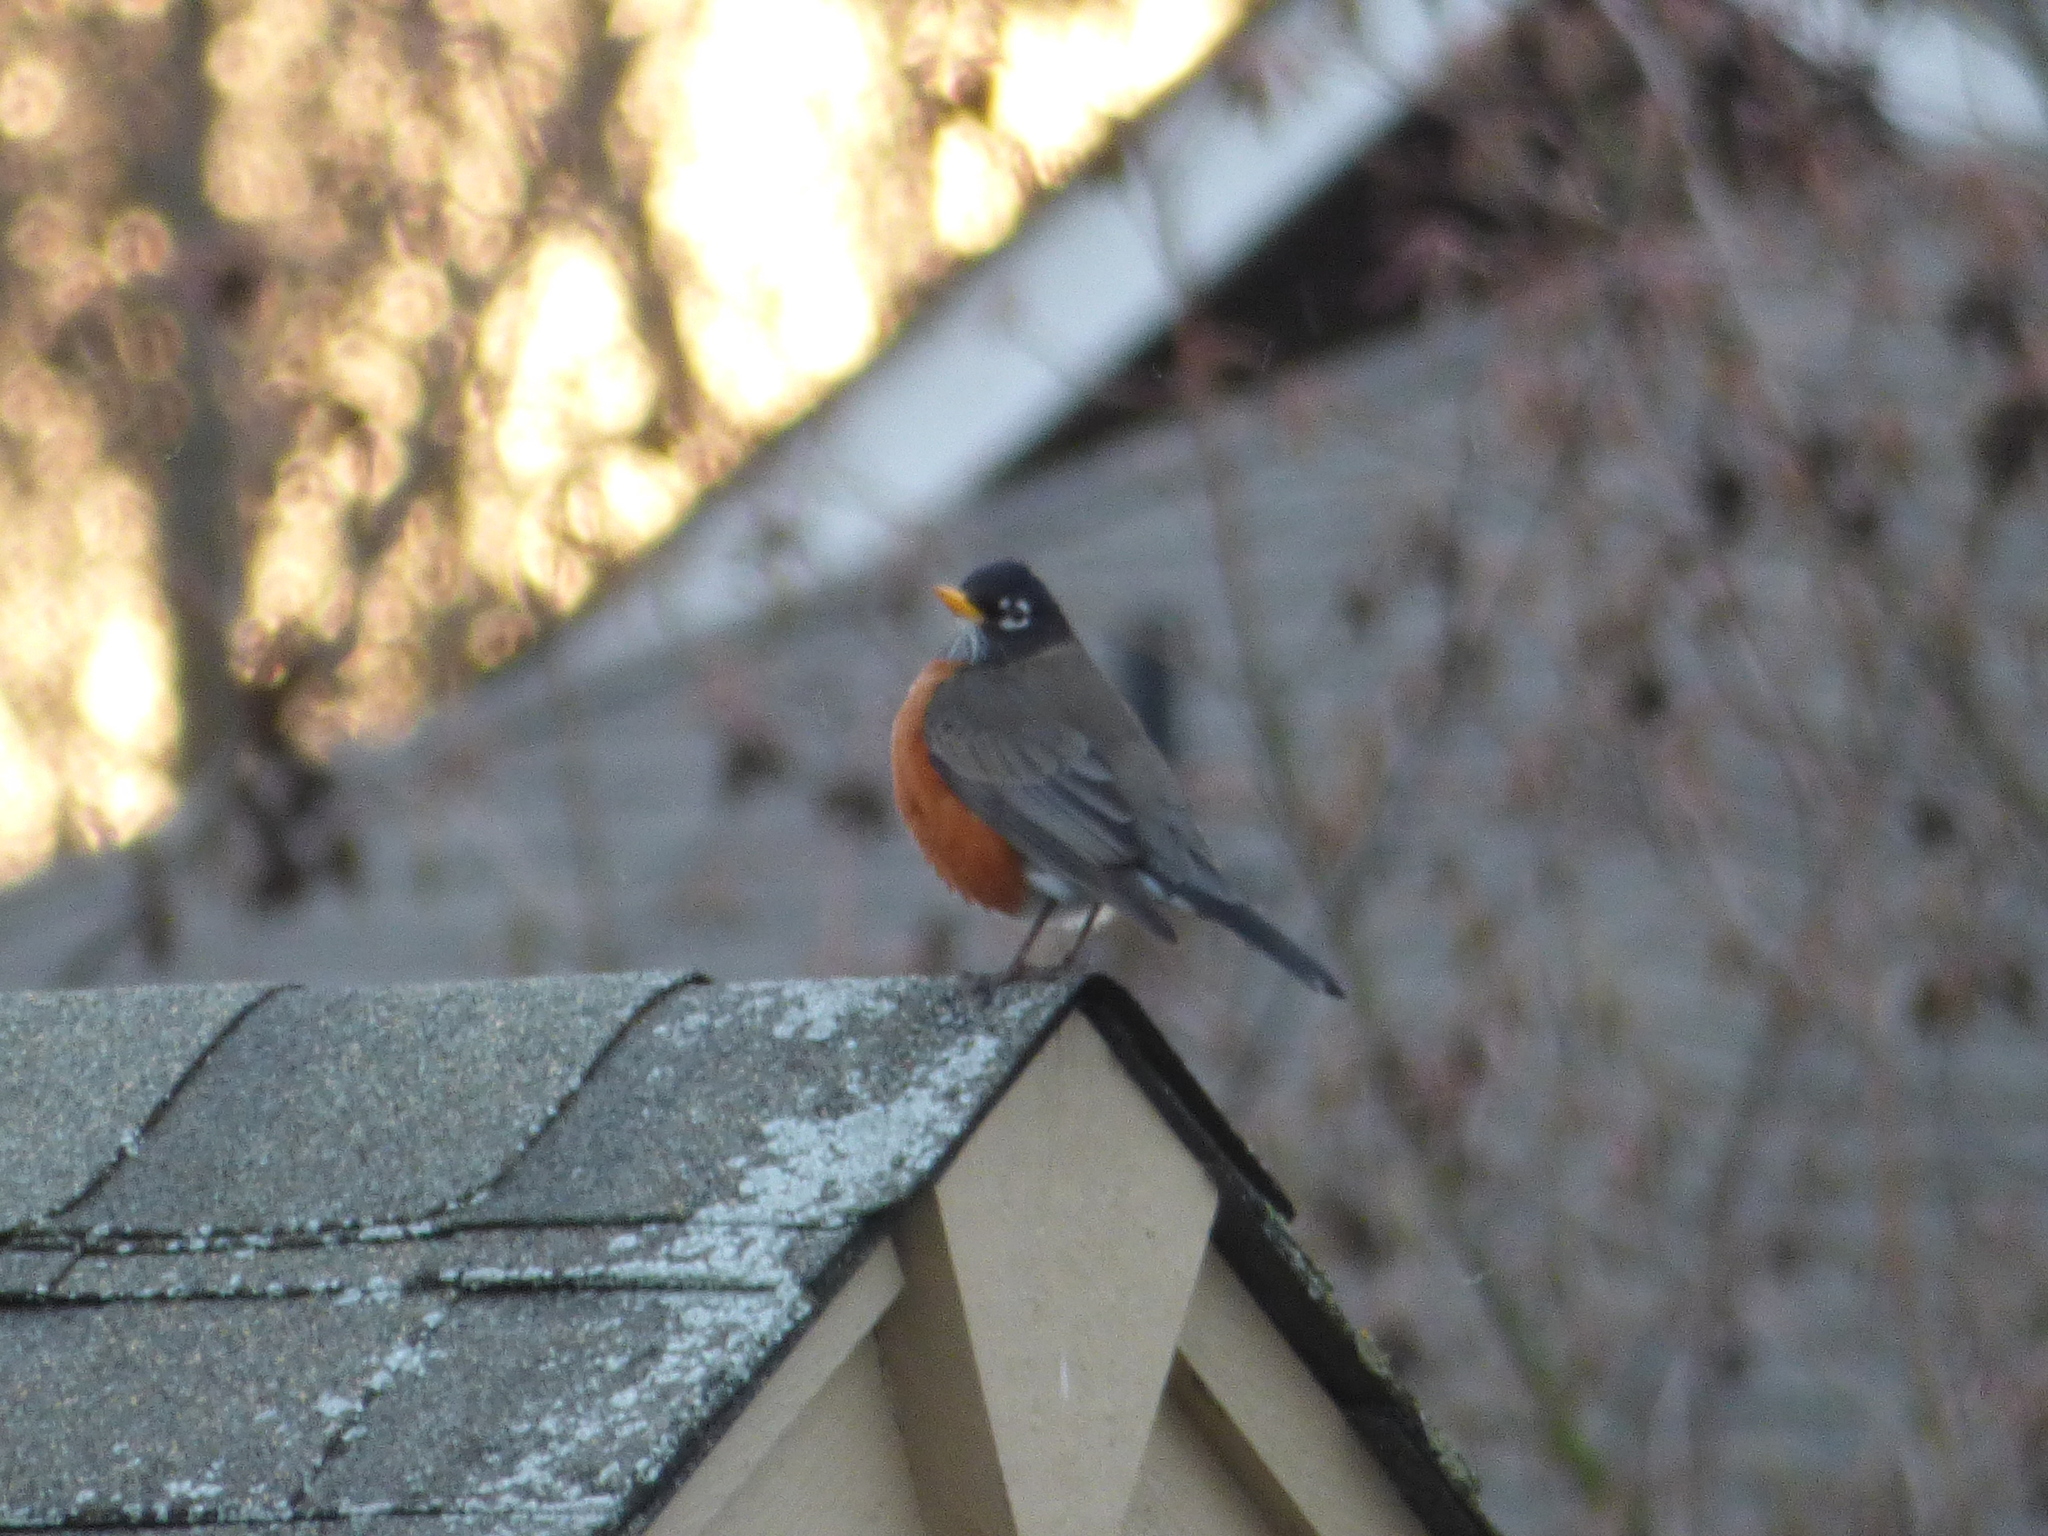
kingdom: Animalia
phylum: Chordata
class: Aves
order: Passeriformes
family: Turdidae
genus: Turdus
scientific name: Turdus migratorius
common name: American robin
